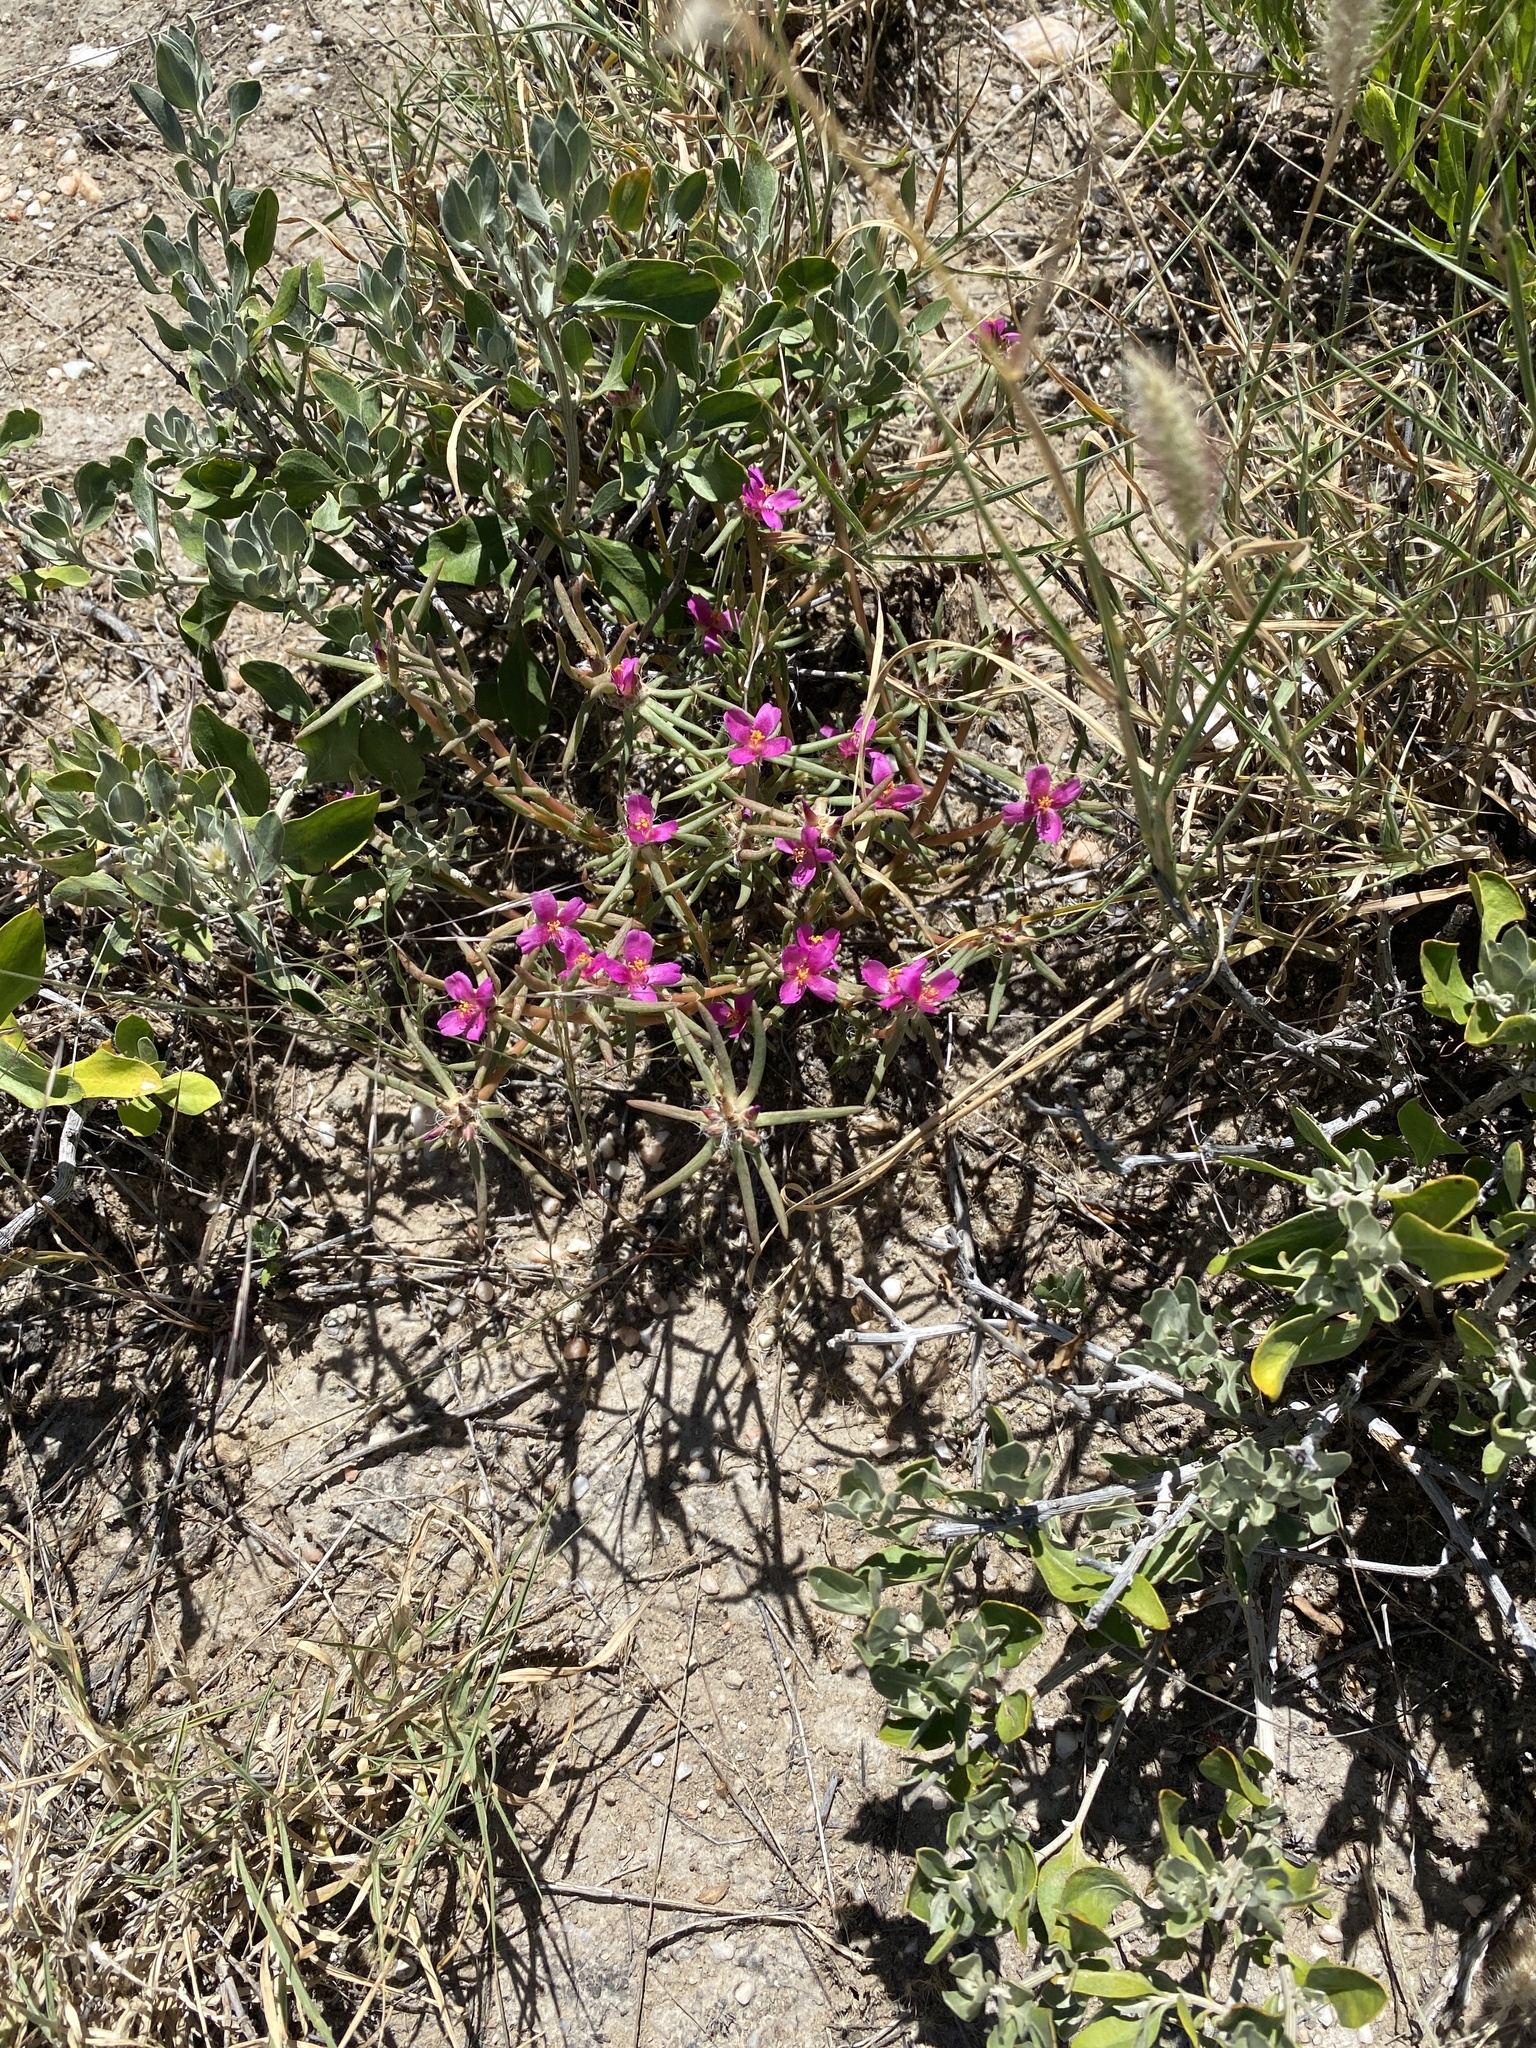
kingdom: Plantae
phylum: Tracheophyta
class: Magnoliopsida
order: Caryophyllales
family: Portulacaceae
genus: Portulaca
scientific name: Portulaca kermesina
